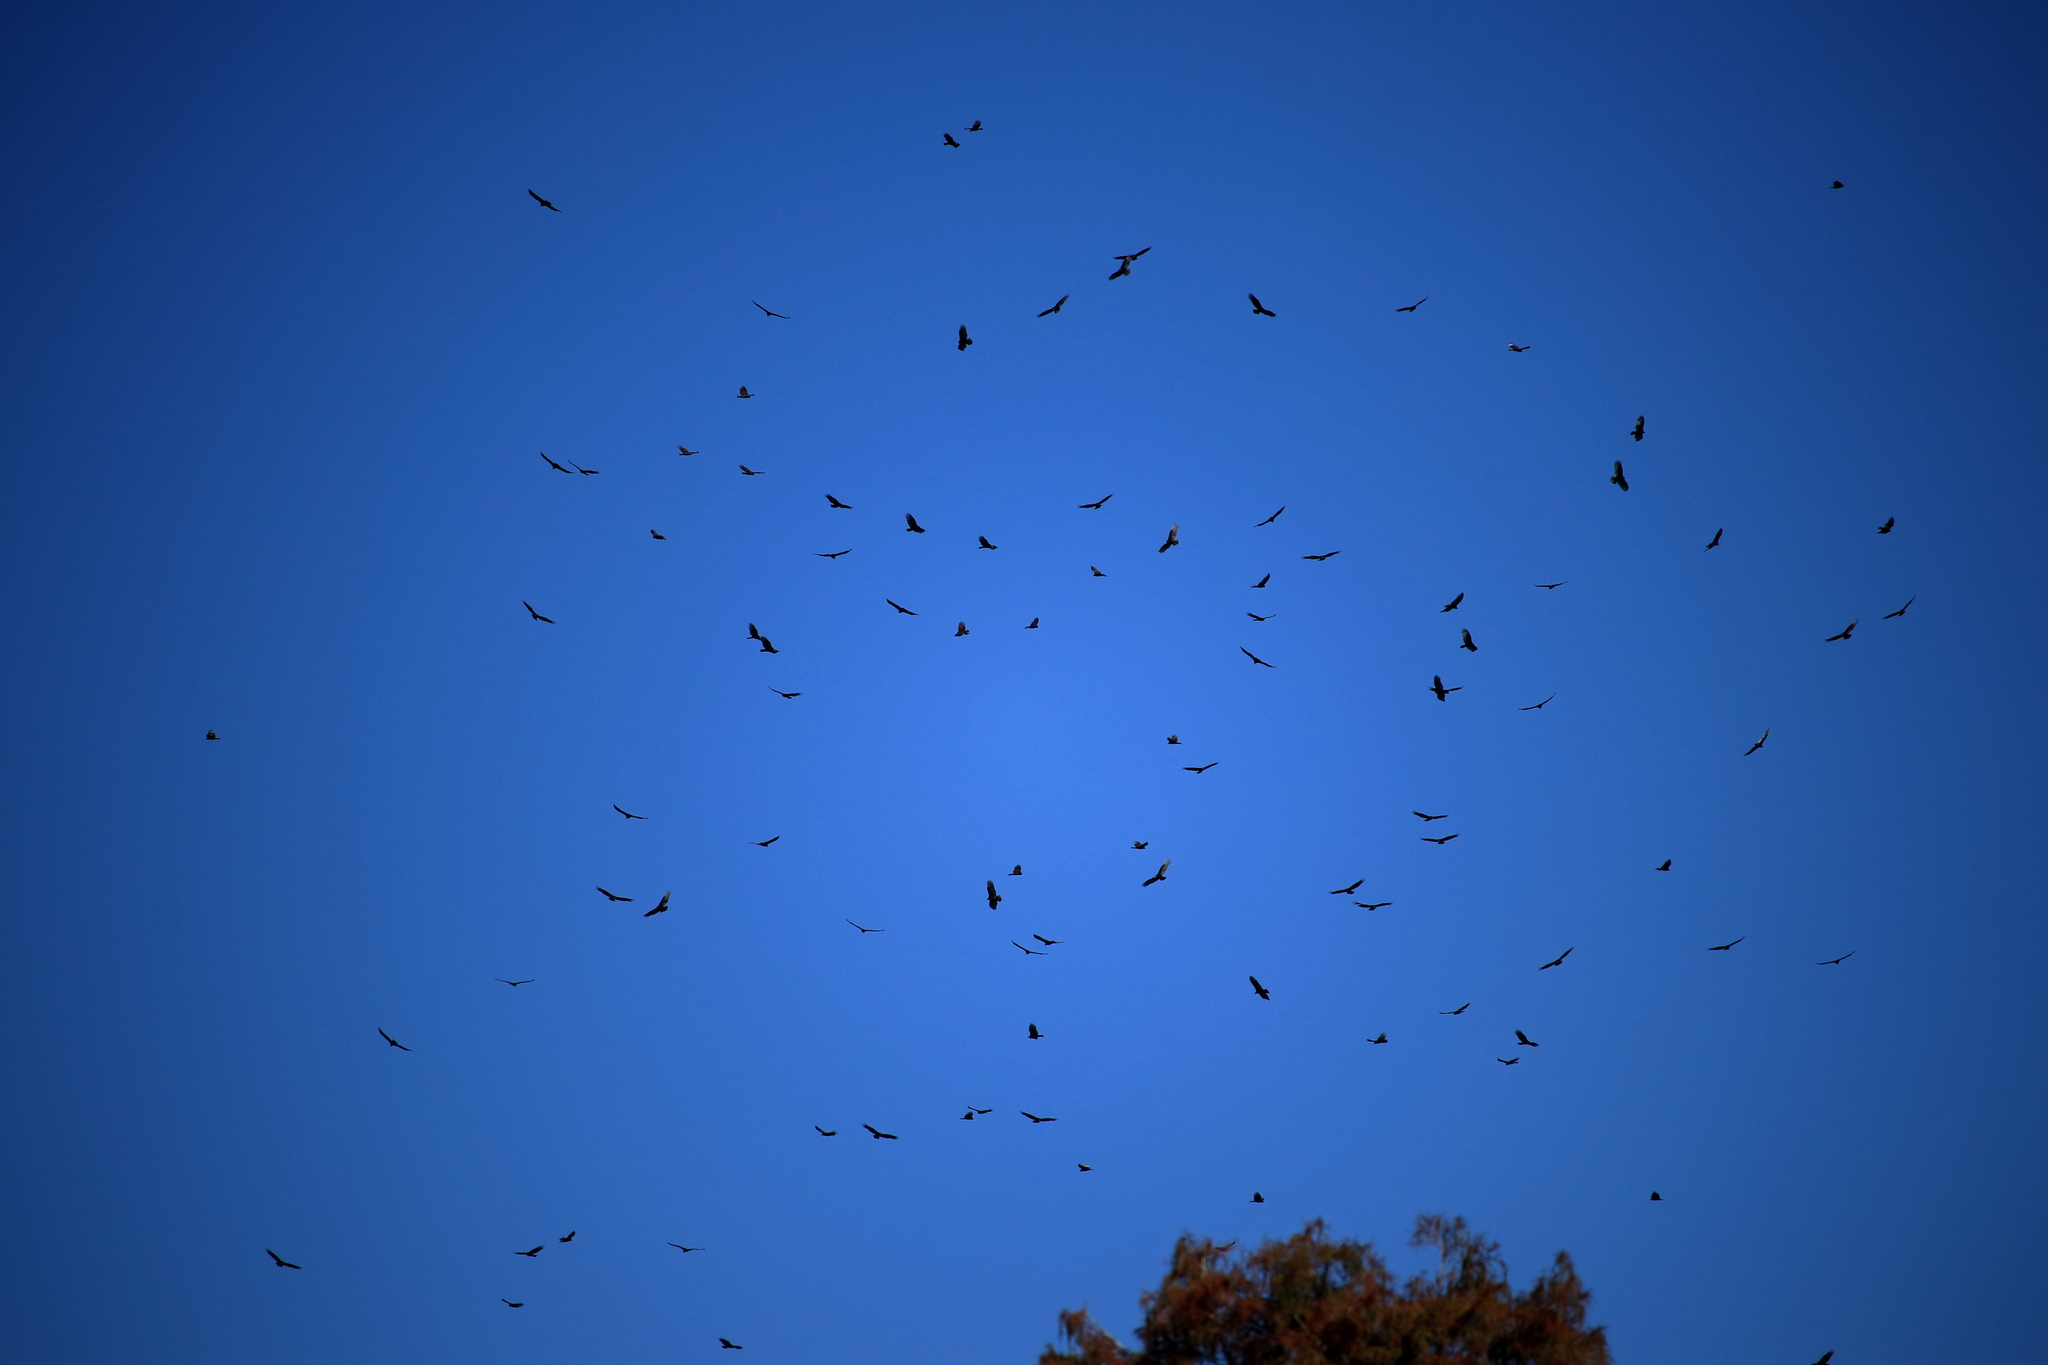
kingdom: Animalia
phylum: Chordata
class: Aves
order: Accipitriformes
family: Cathartidae
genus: Cathartes
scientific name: Cathartes aura
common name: Turkey vulture
